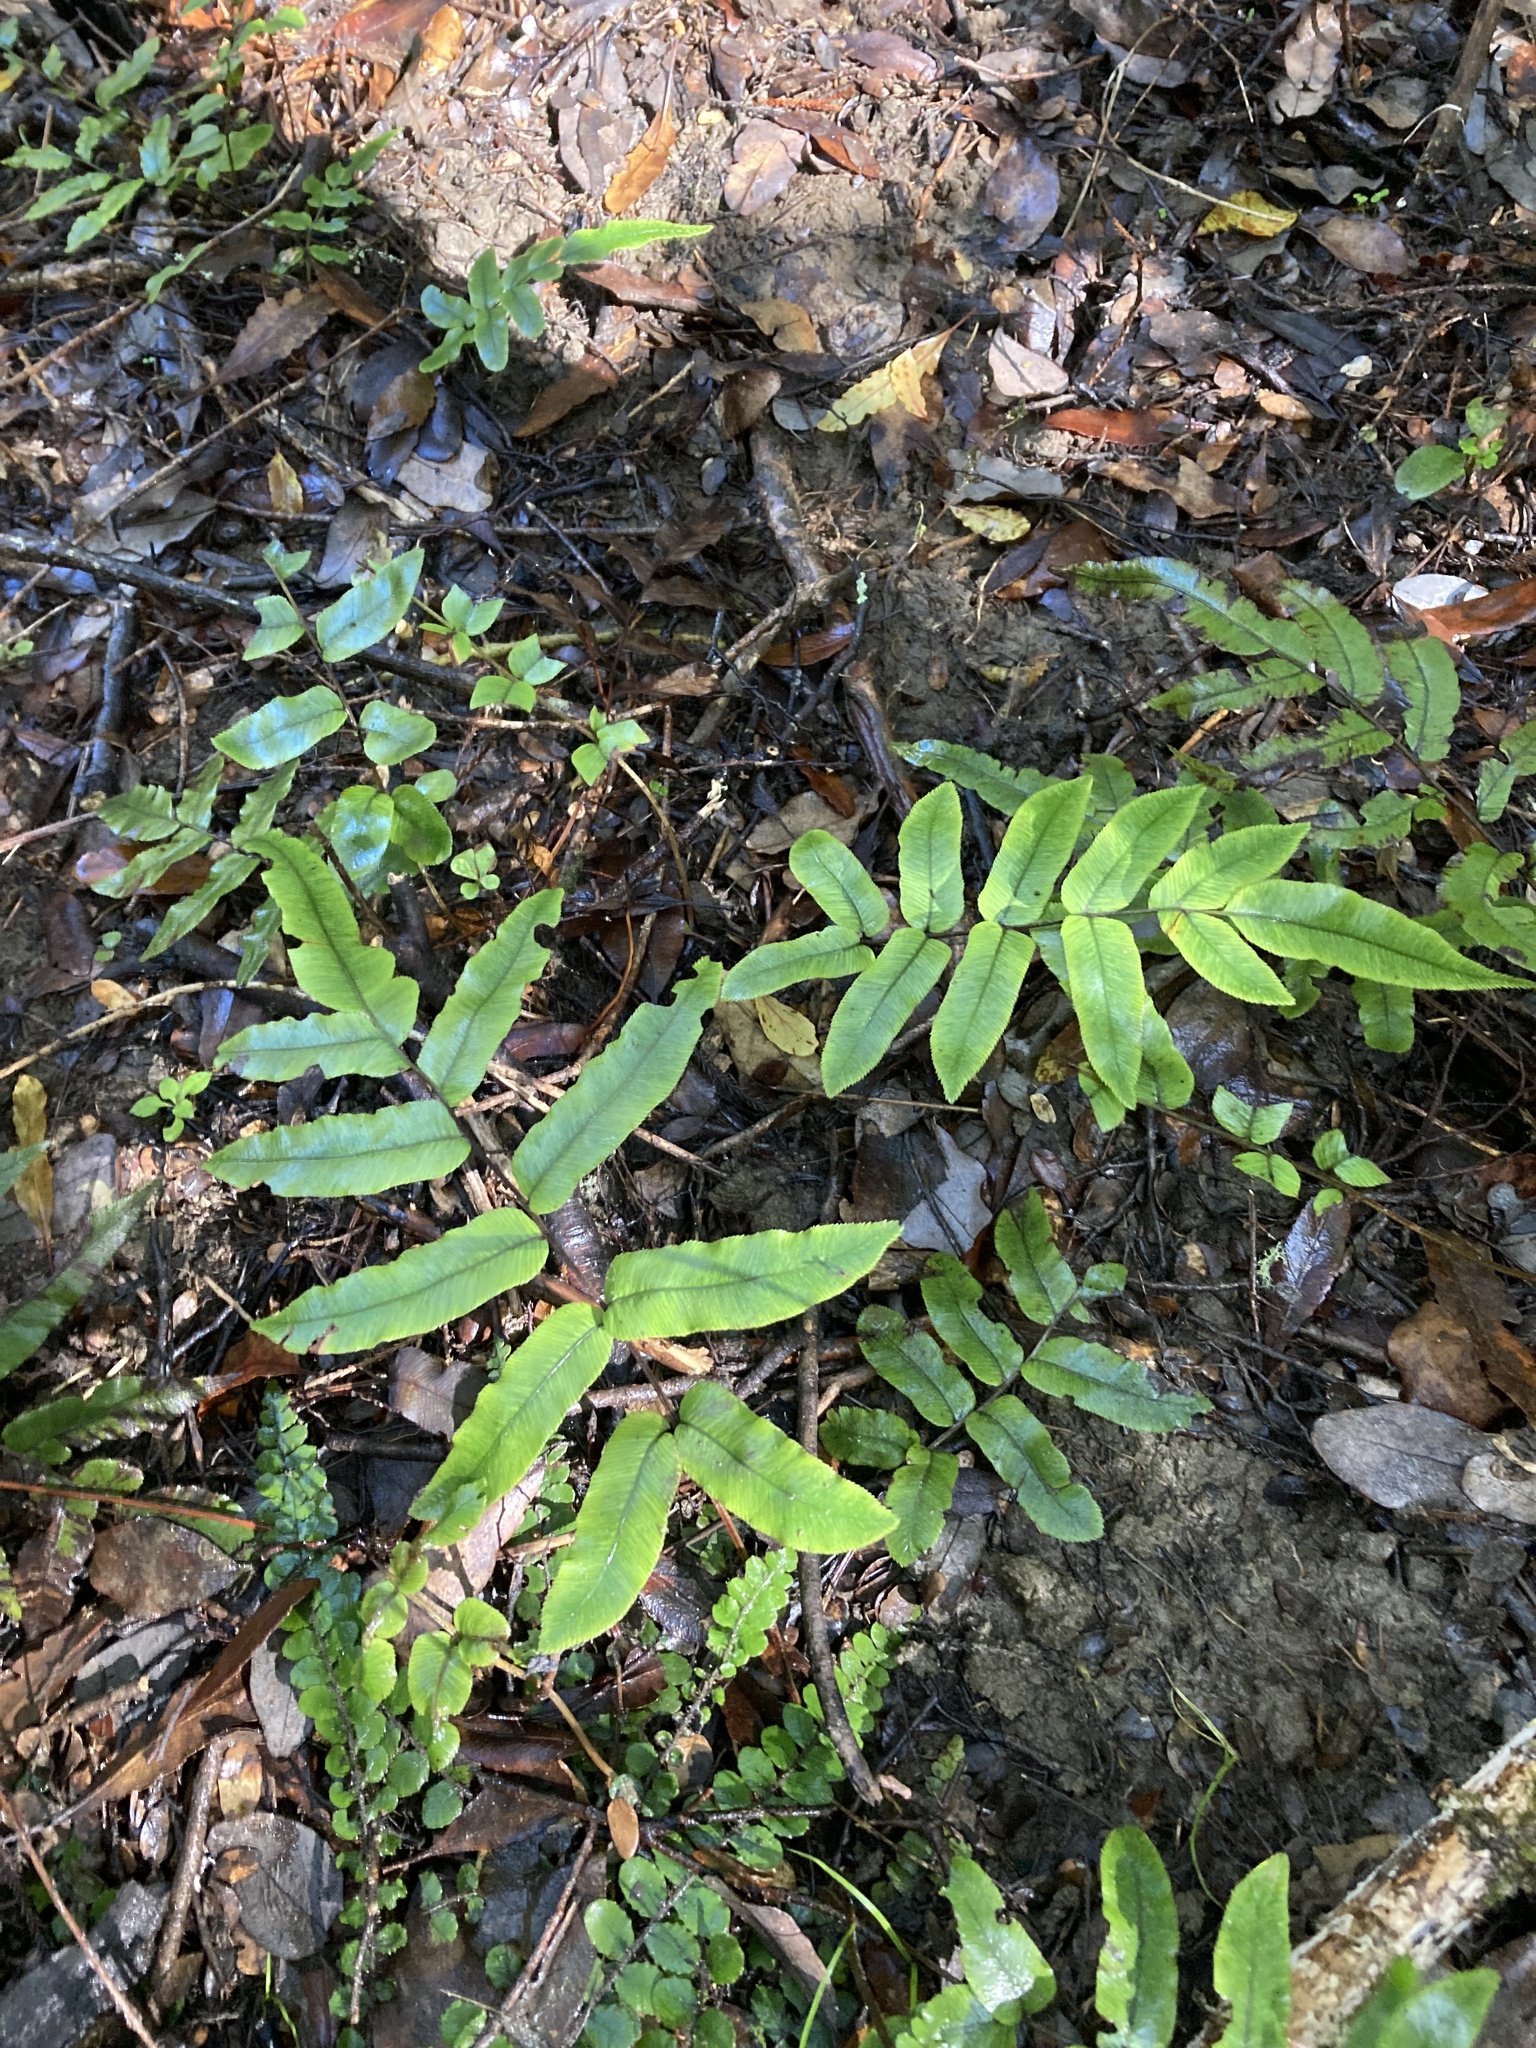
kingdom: Plantae
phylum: Tracheophyta
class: Polypodiopsida
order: Polypodiales
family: Blechnaceae
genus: Parablechnum
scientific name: Parablechnum procerum
